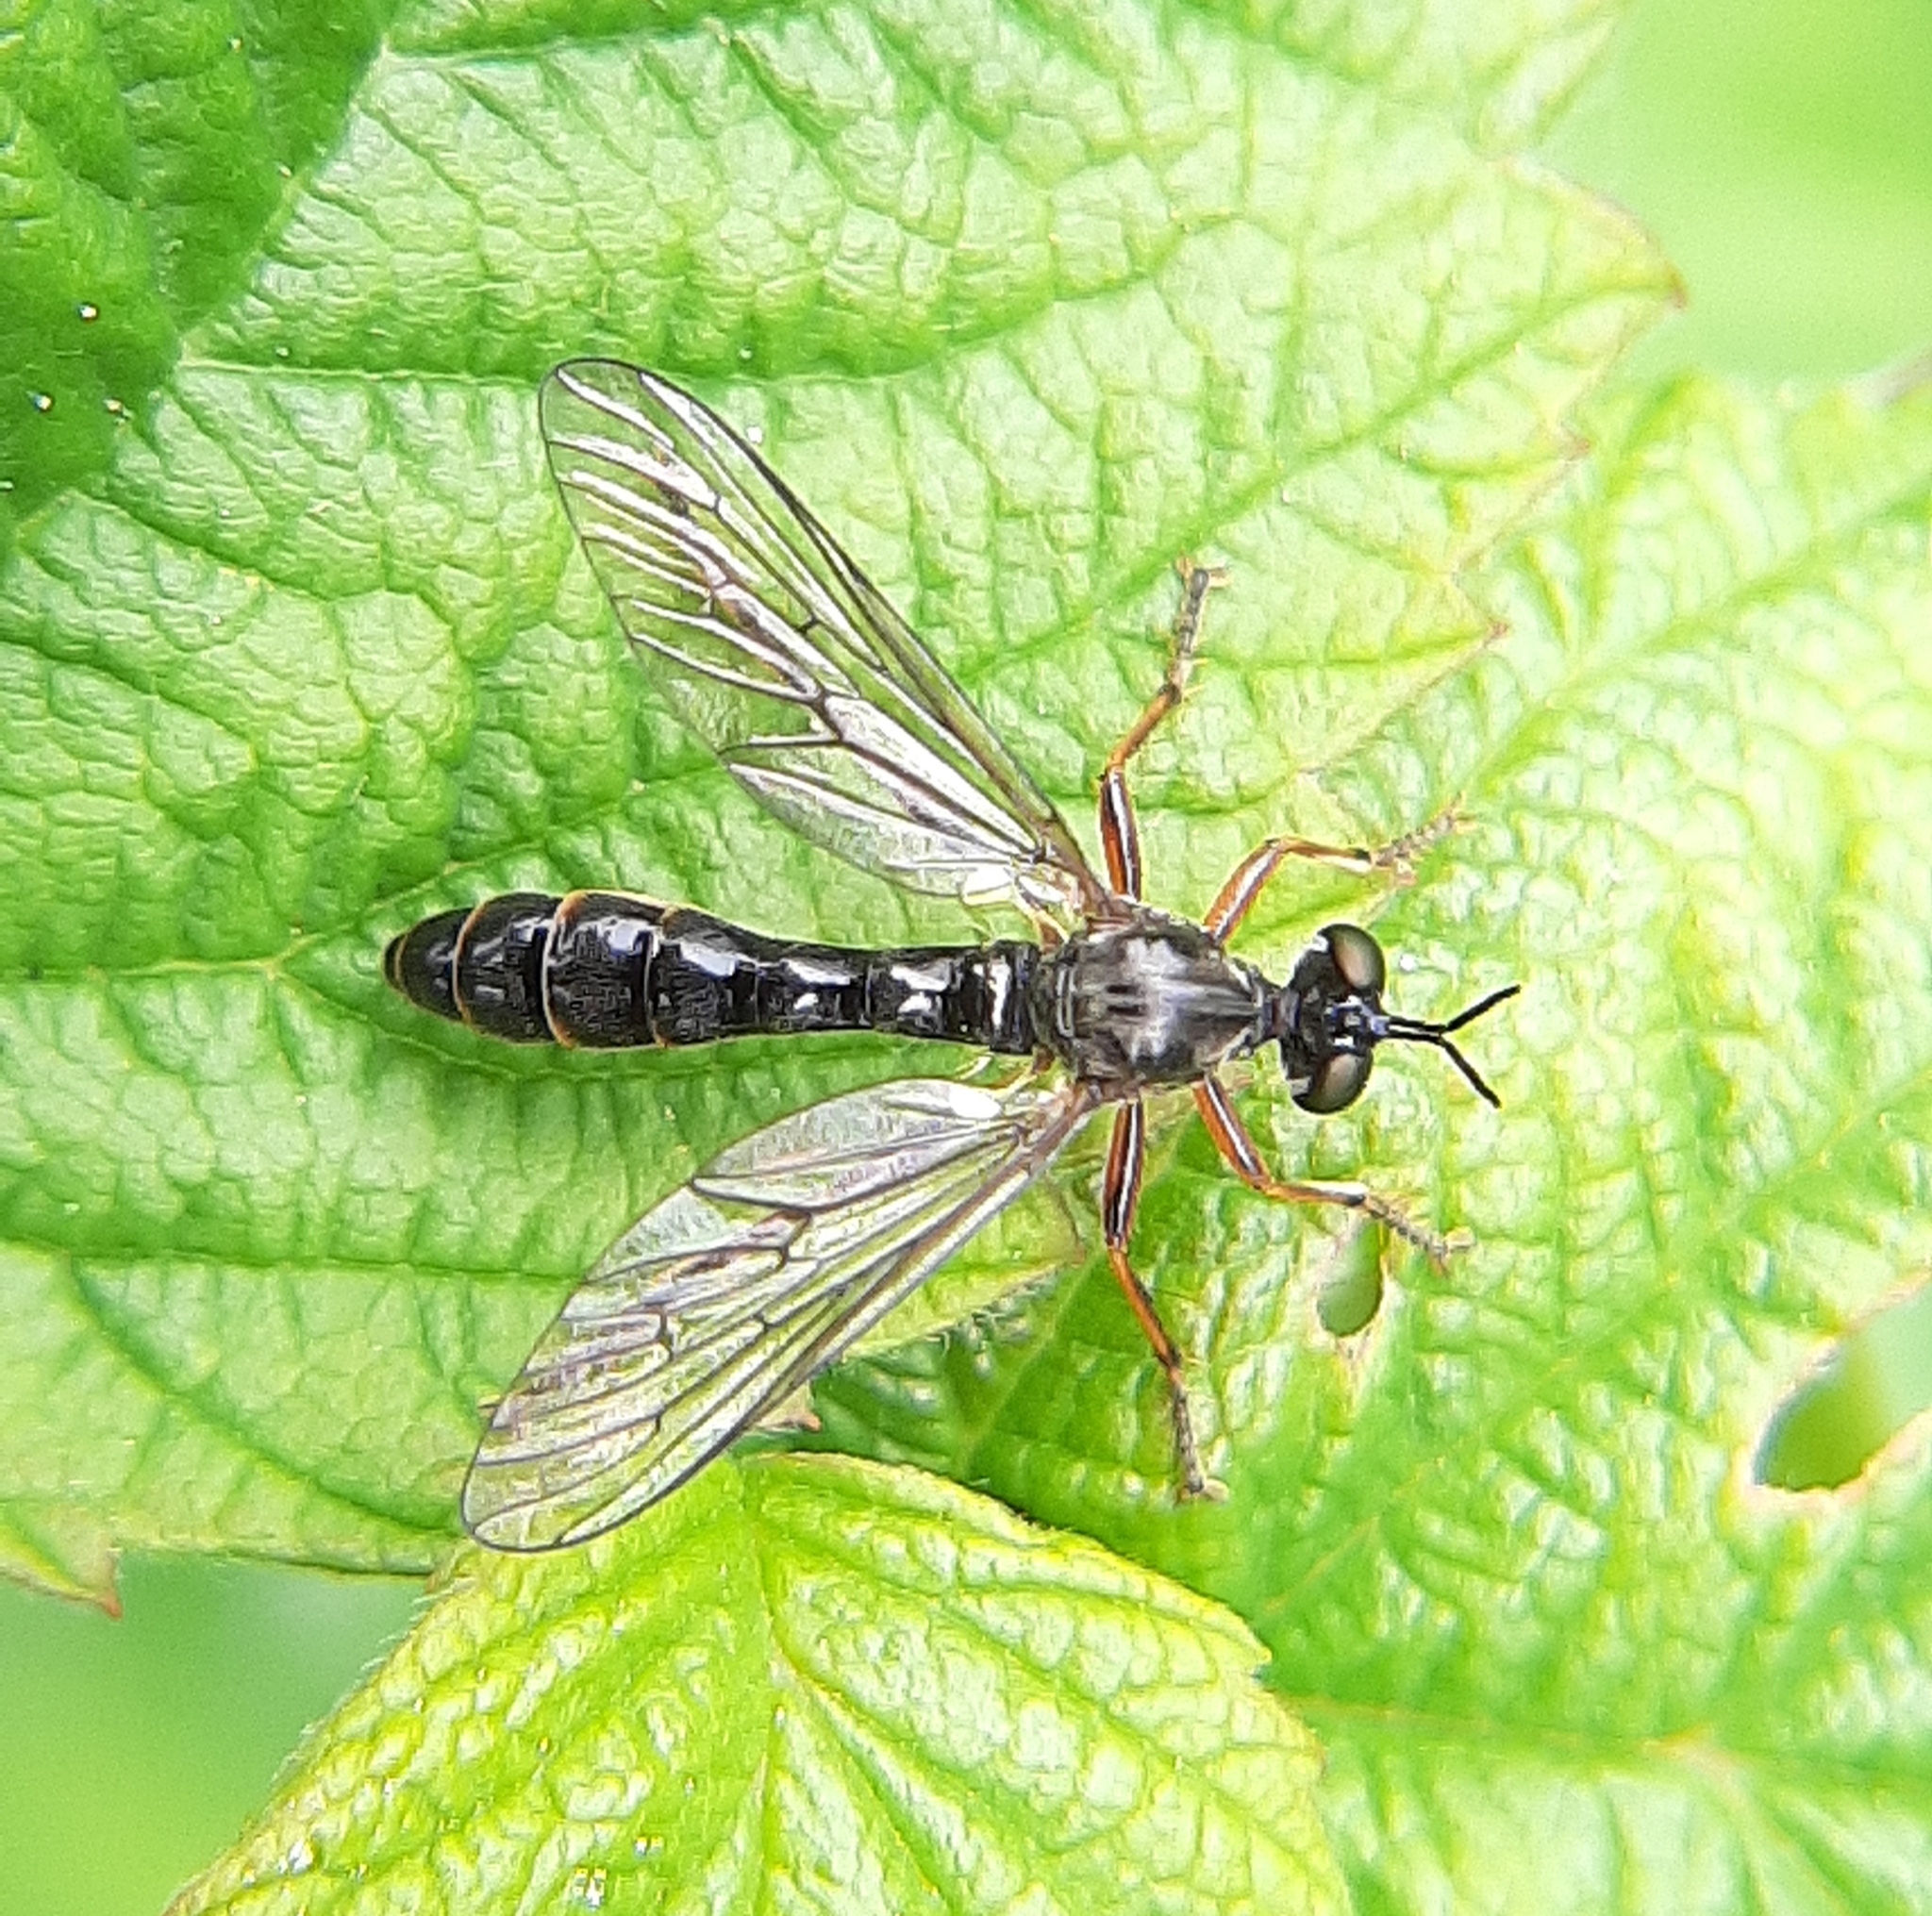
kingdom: Animalia
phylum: Arthropoda
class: Insecta
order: Diptera
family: Asilidae
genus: Dioctria
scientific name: Dioctria hyalipennis
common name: Stripe-legged robberfly
